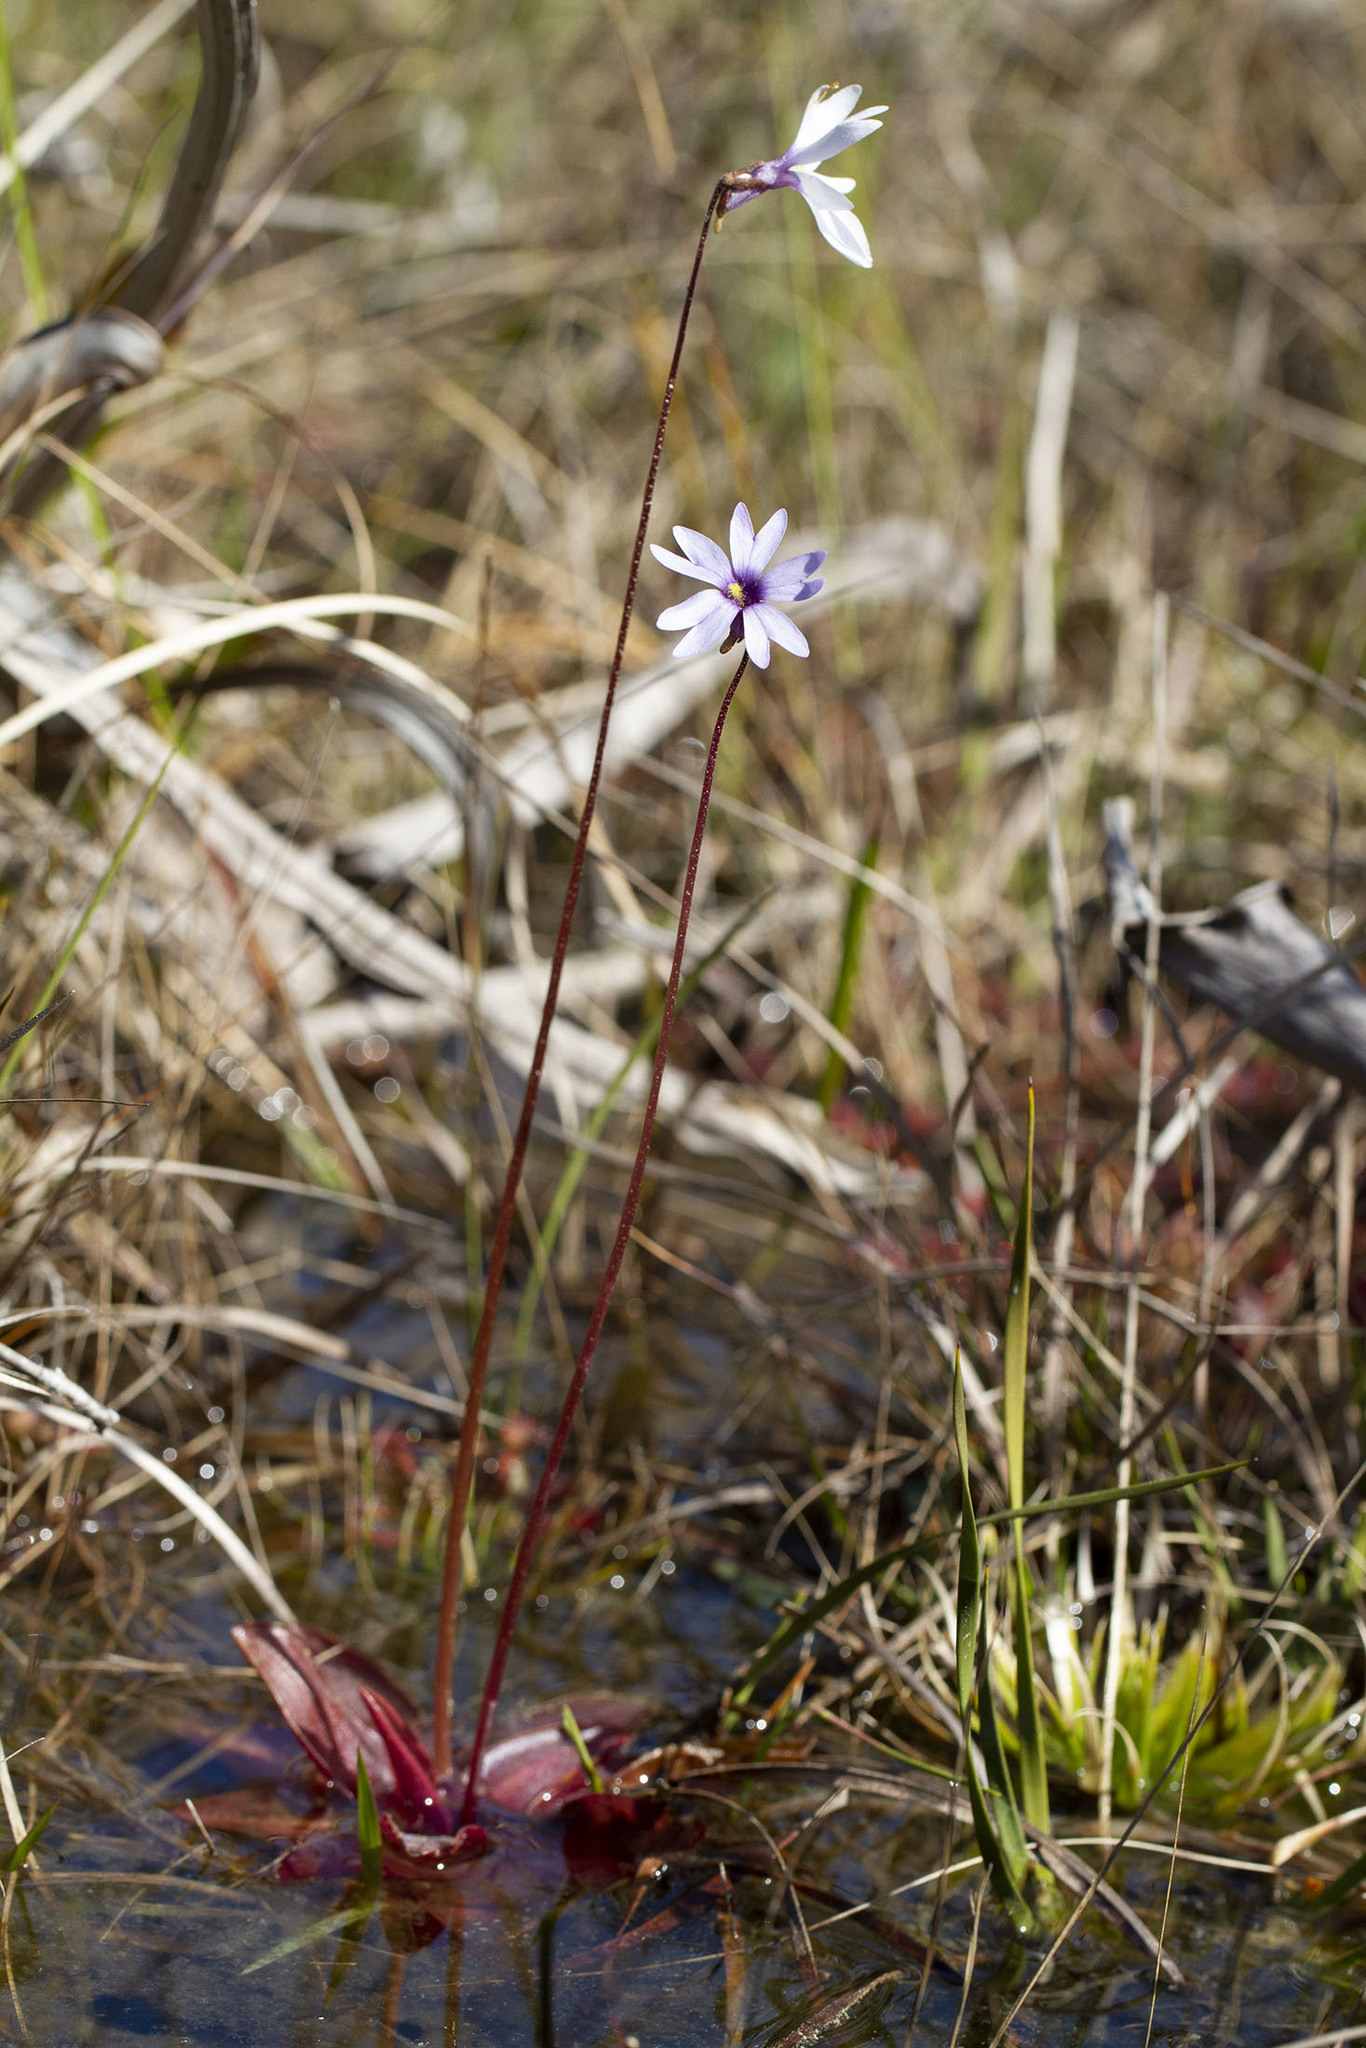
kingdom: Plantae
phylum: Tracheophyta
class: Magnoliopsida
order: Lamiales
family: Lentibulariaceae
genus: Pinguicula
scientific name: Pinguicula planifolia
